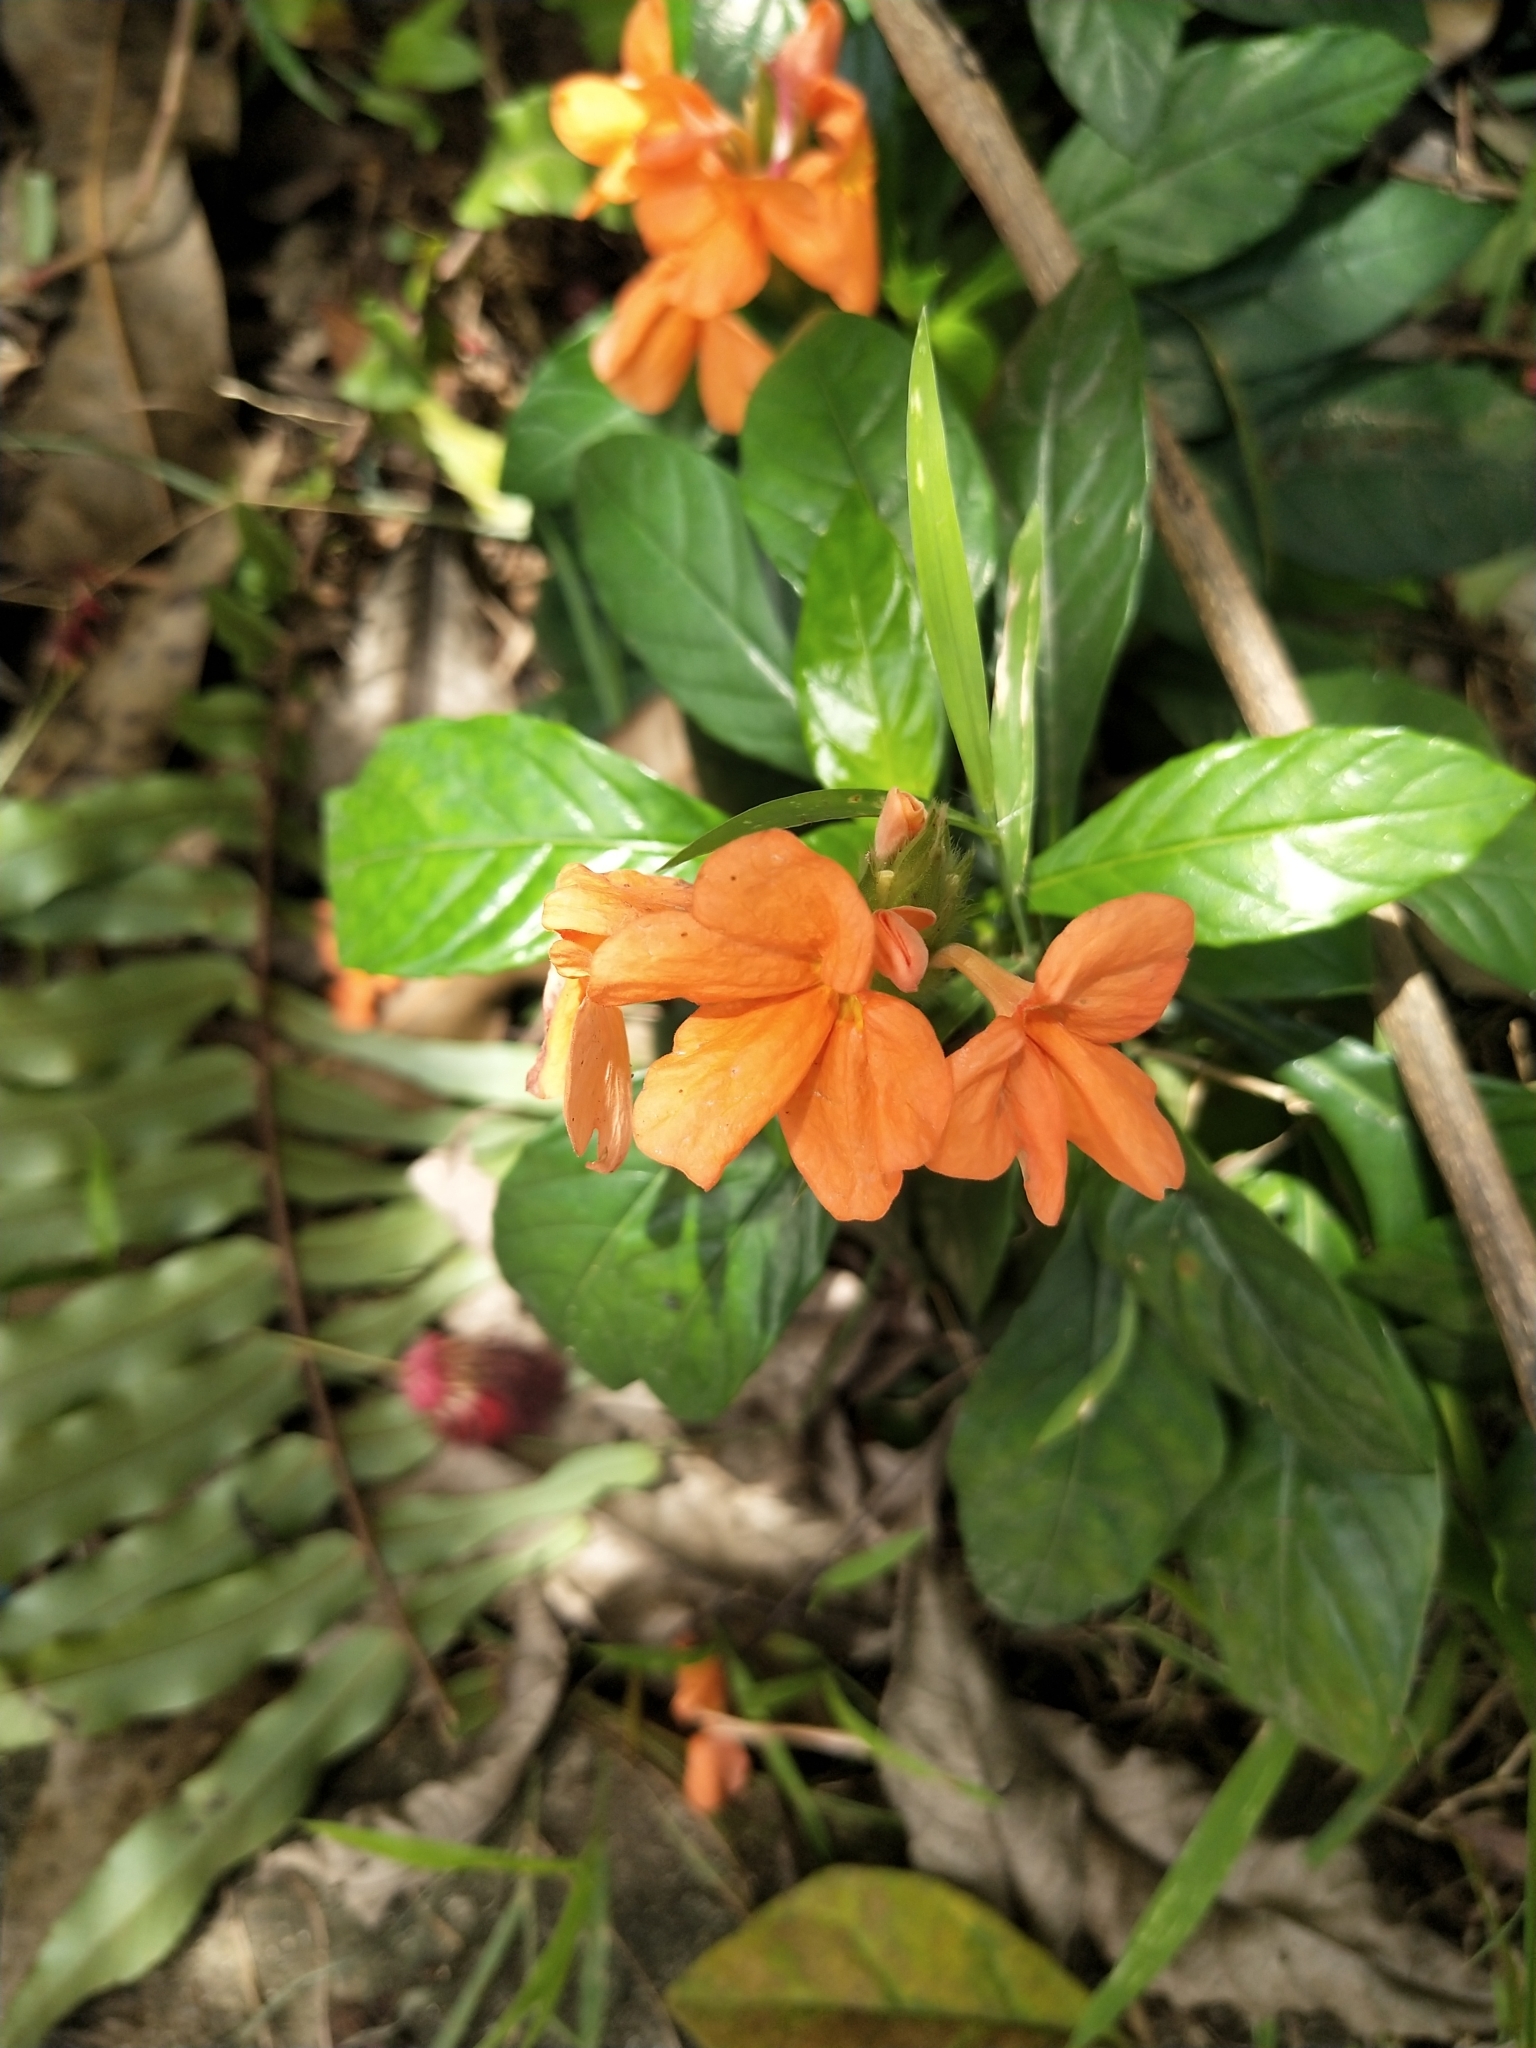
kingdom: Plantae
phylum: Tracheophyta
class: Magnoliopsida
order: Lamiales
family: Acanthaceae
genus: Crossandra
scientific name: Crossandra infundibuliformis
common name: Firecracker-flower
